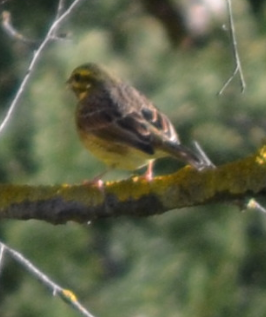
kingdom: Animalia
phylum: Chordata
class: Aves
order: Passeriformes
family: Emberizidae
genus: Emberiza
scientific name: Emberiza cirlus
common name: Cirl bunting
